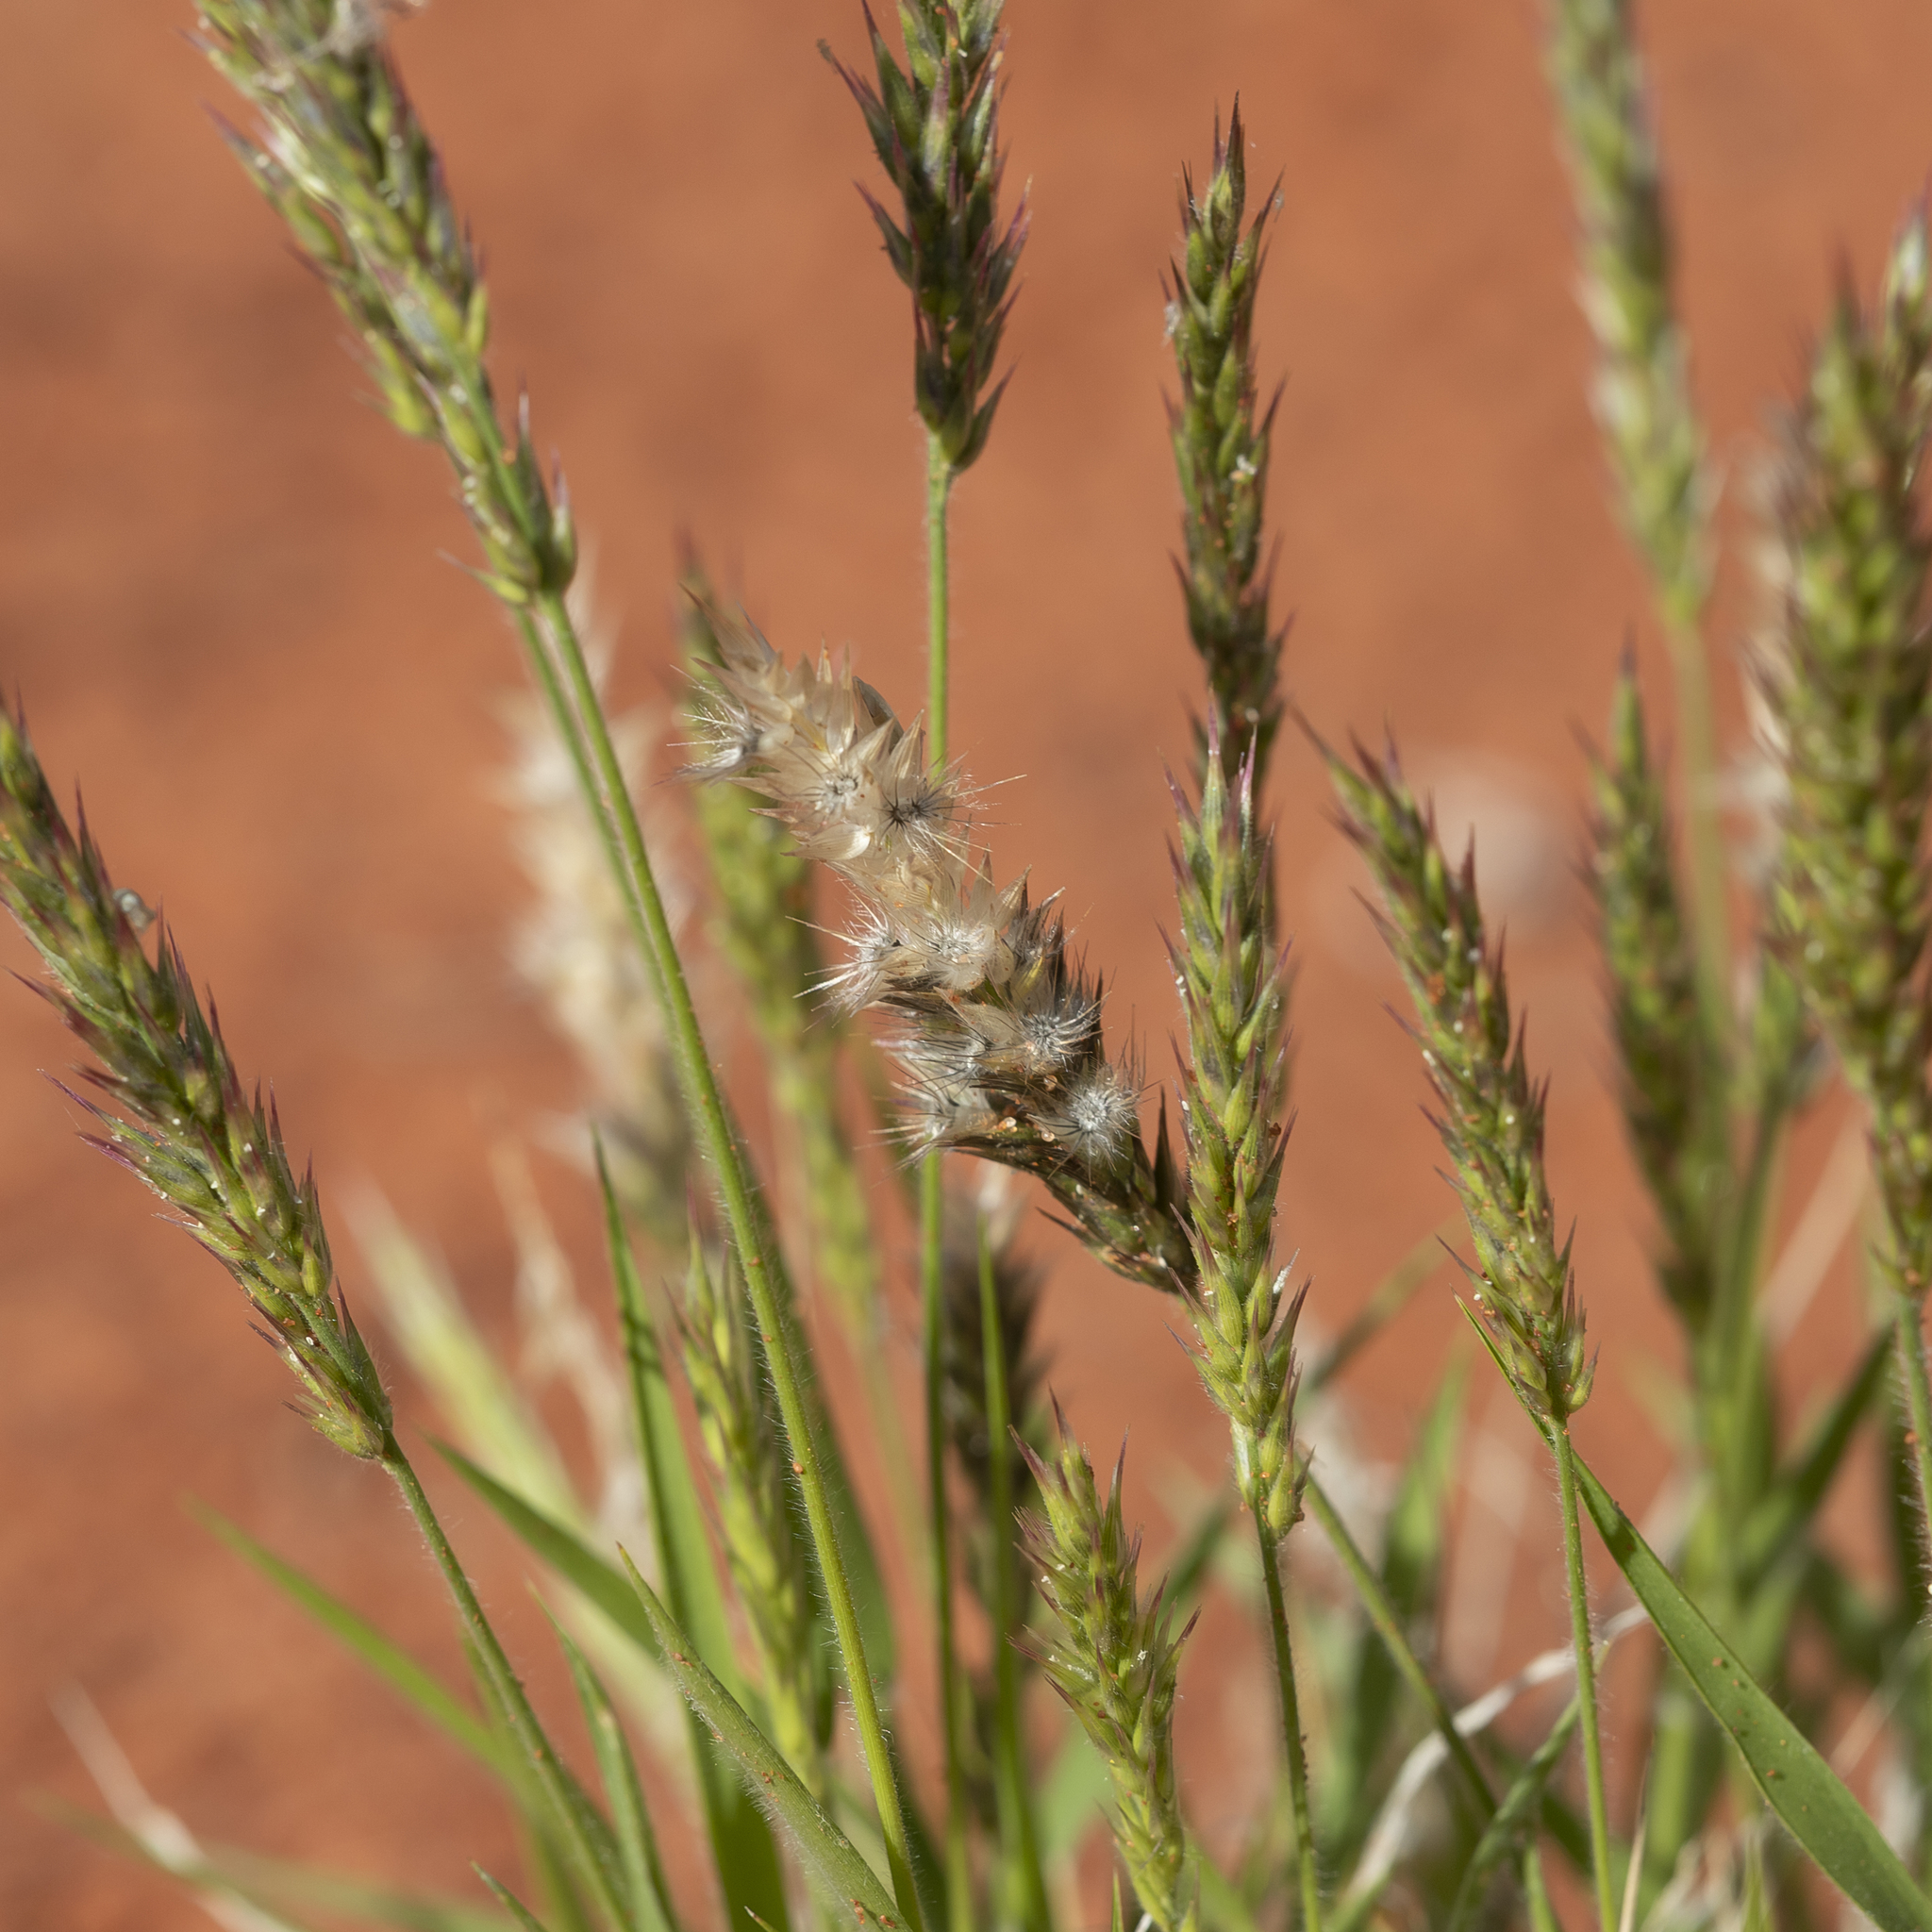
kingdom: Plantae
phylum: Tracheophyta
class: Liliopsida
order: Poales
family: Poaceae
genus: Enneapogon
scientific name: Enneapogon polyphyllus
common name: Leafy nineawn
